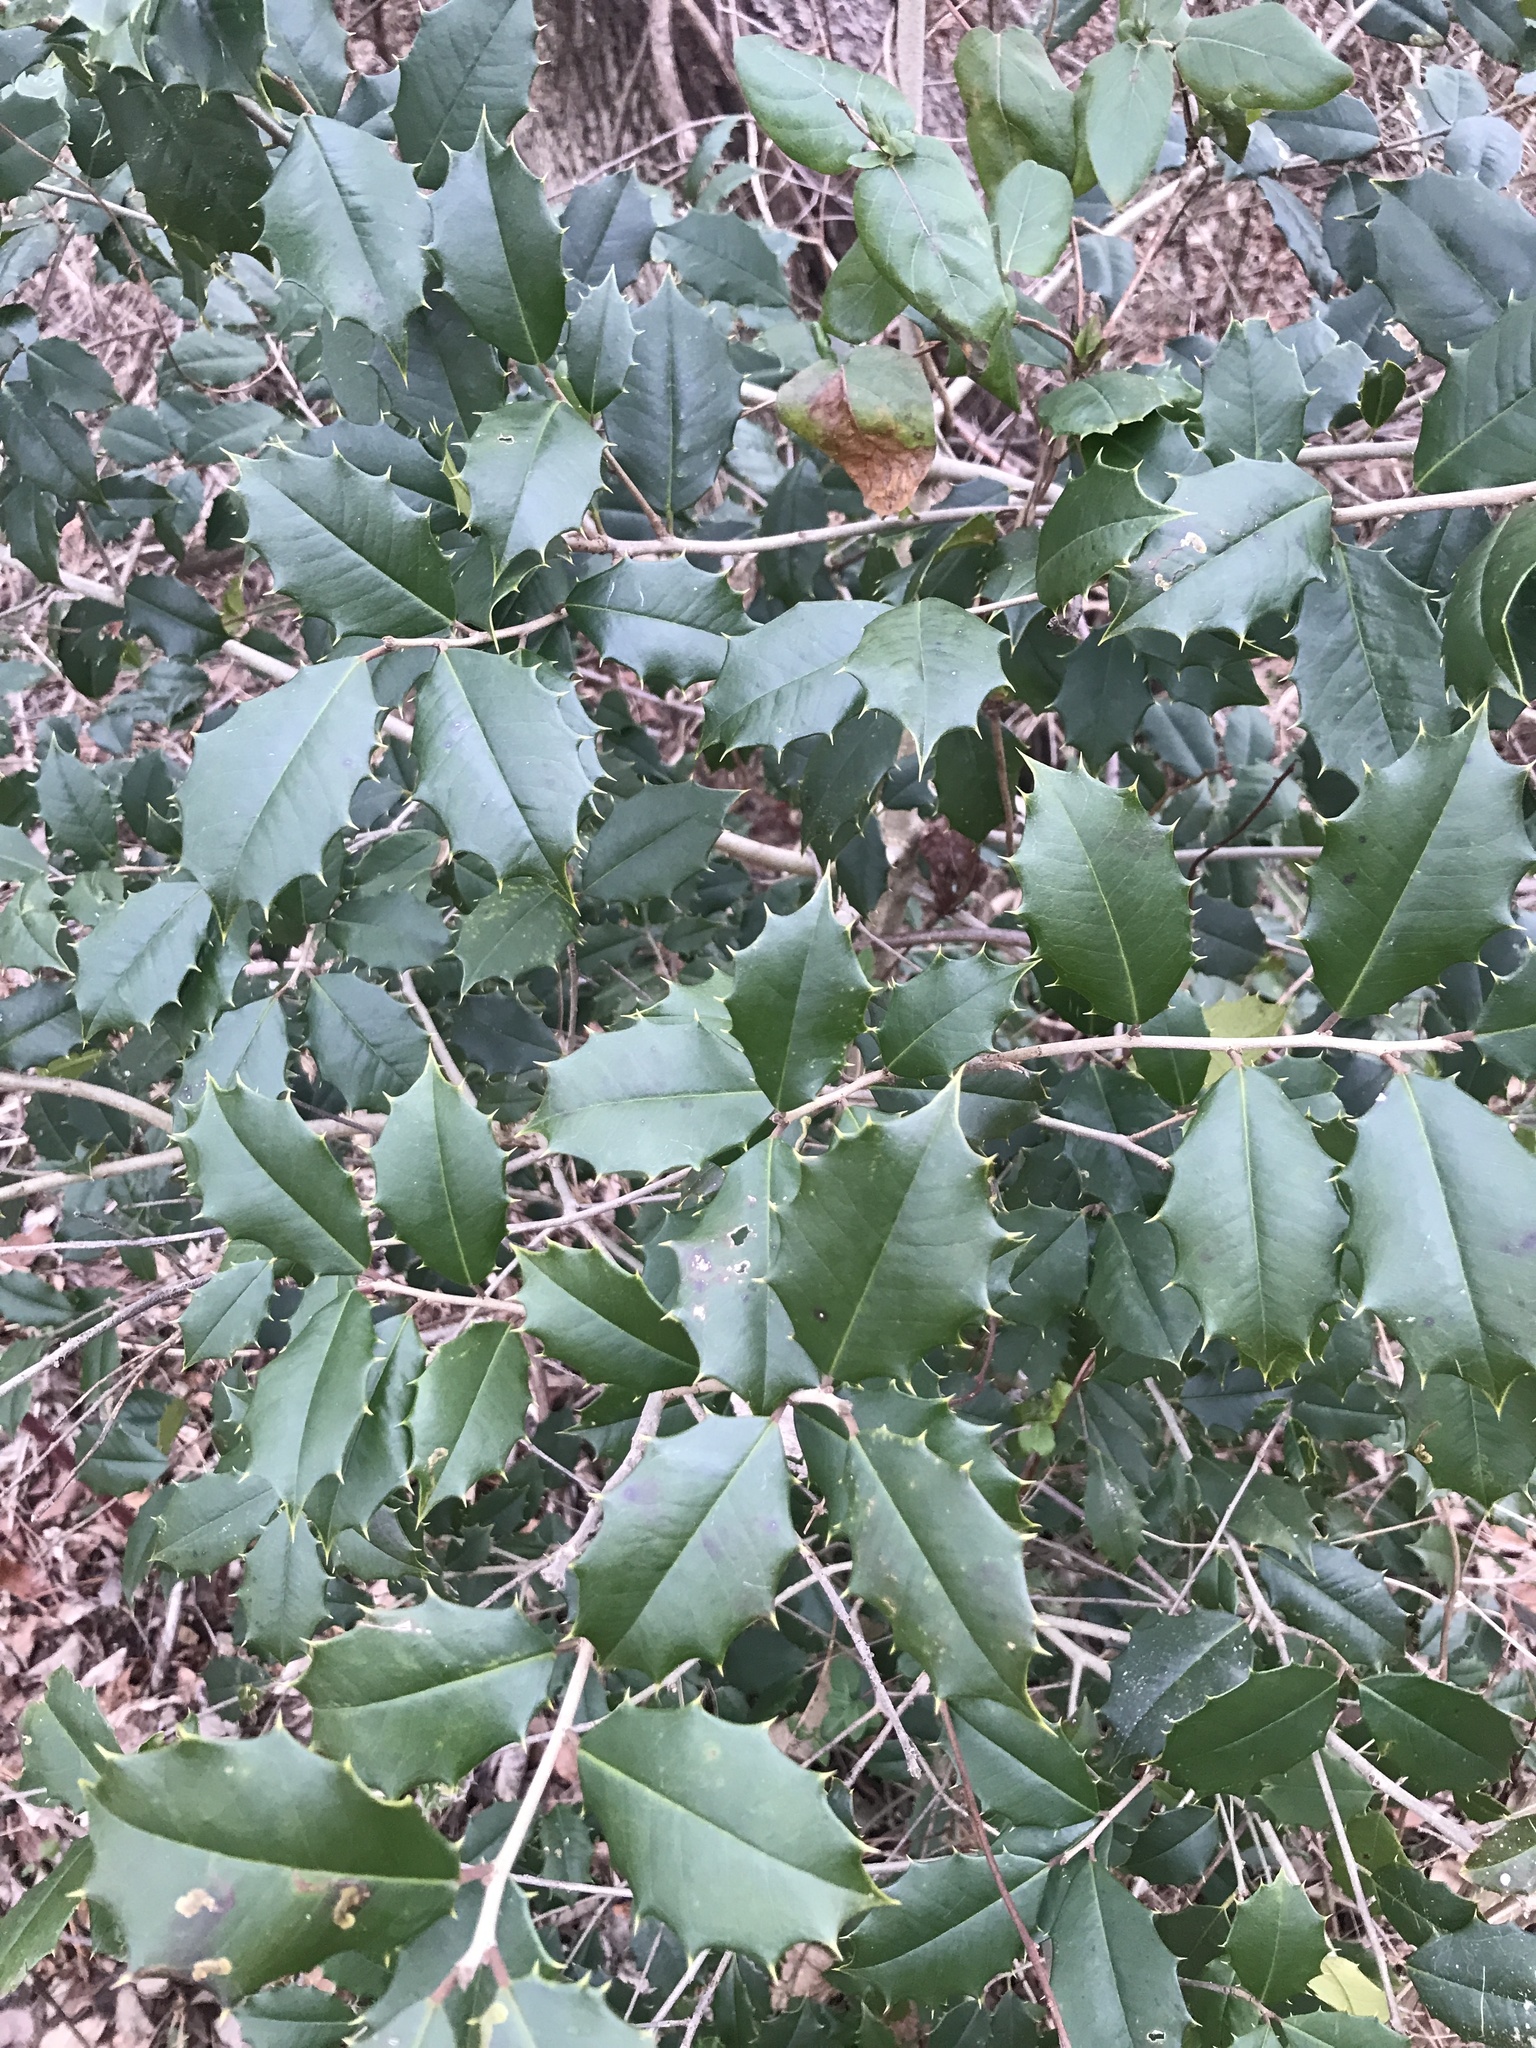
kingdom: Plantae
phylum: Tracheophyta
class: Magnoliopsida
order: Aquifoliales
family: Aquifoliaceae
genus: Ilex
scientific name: Ilex opaca
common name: American holly
